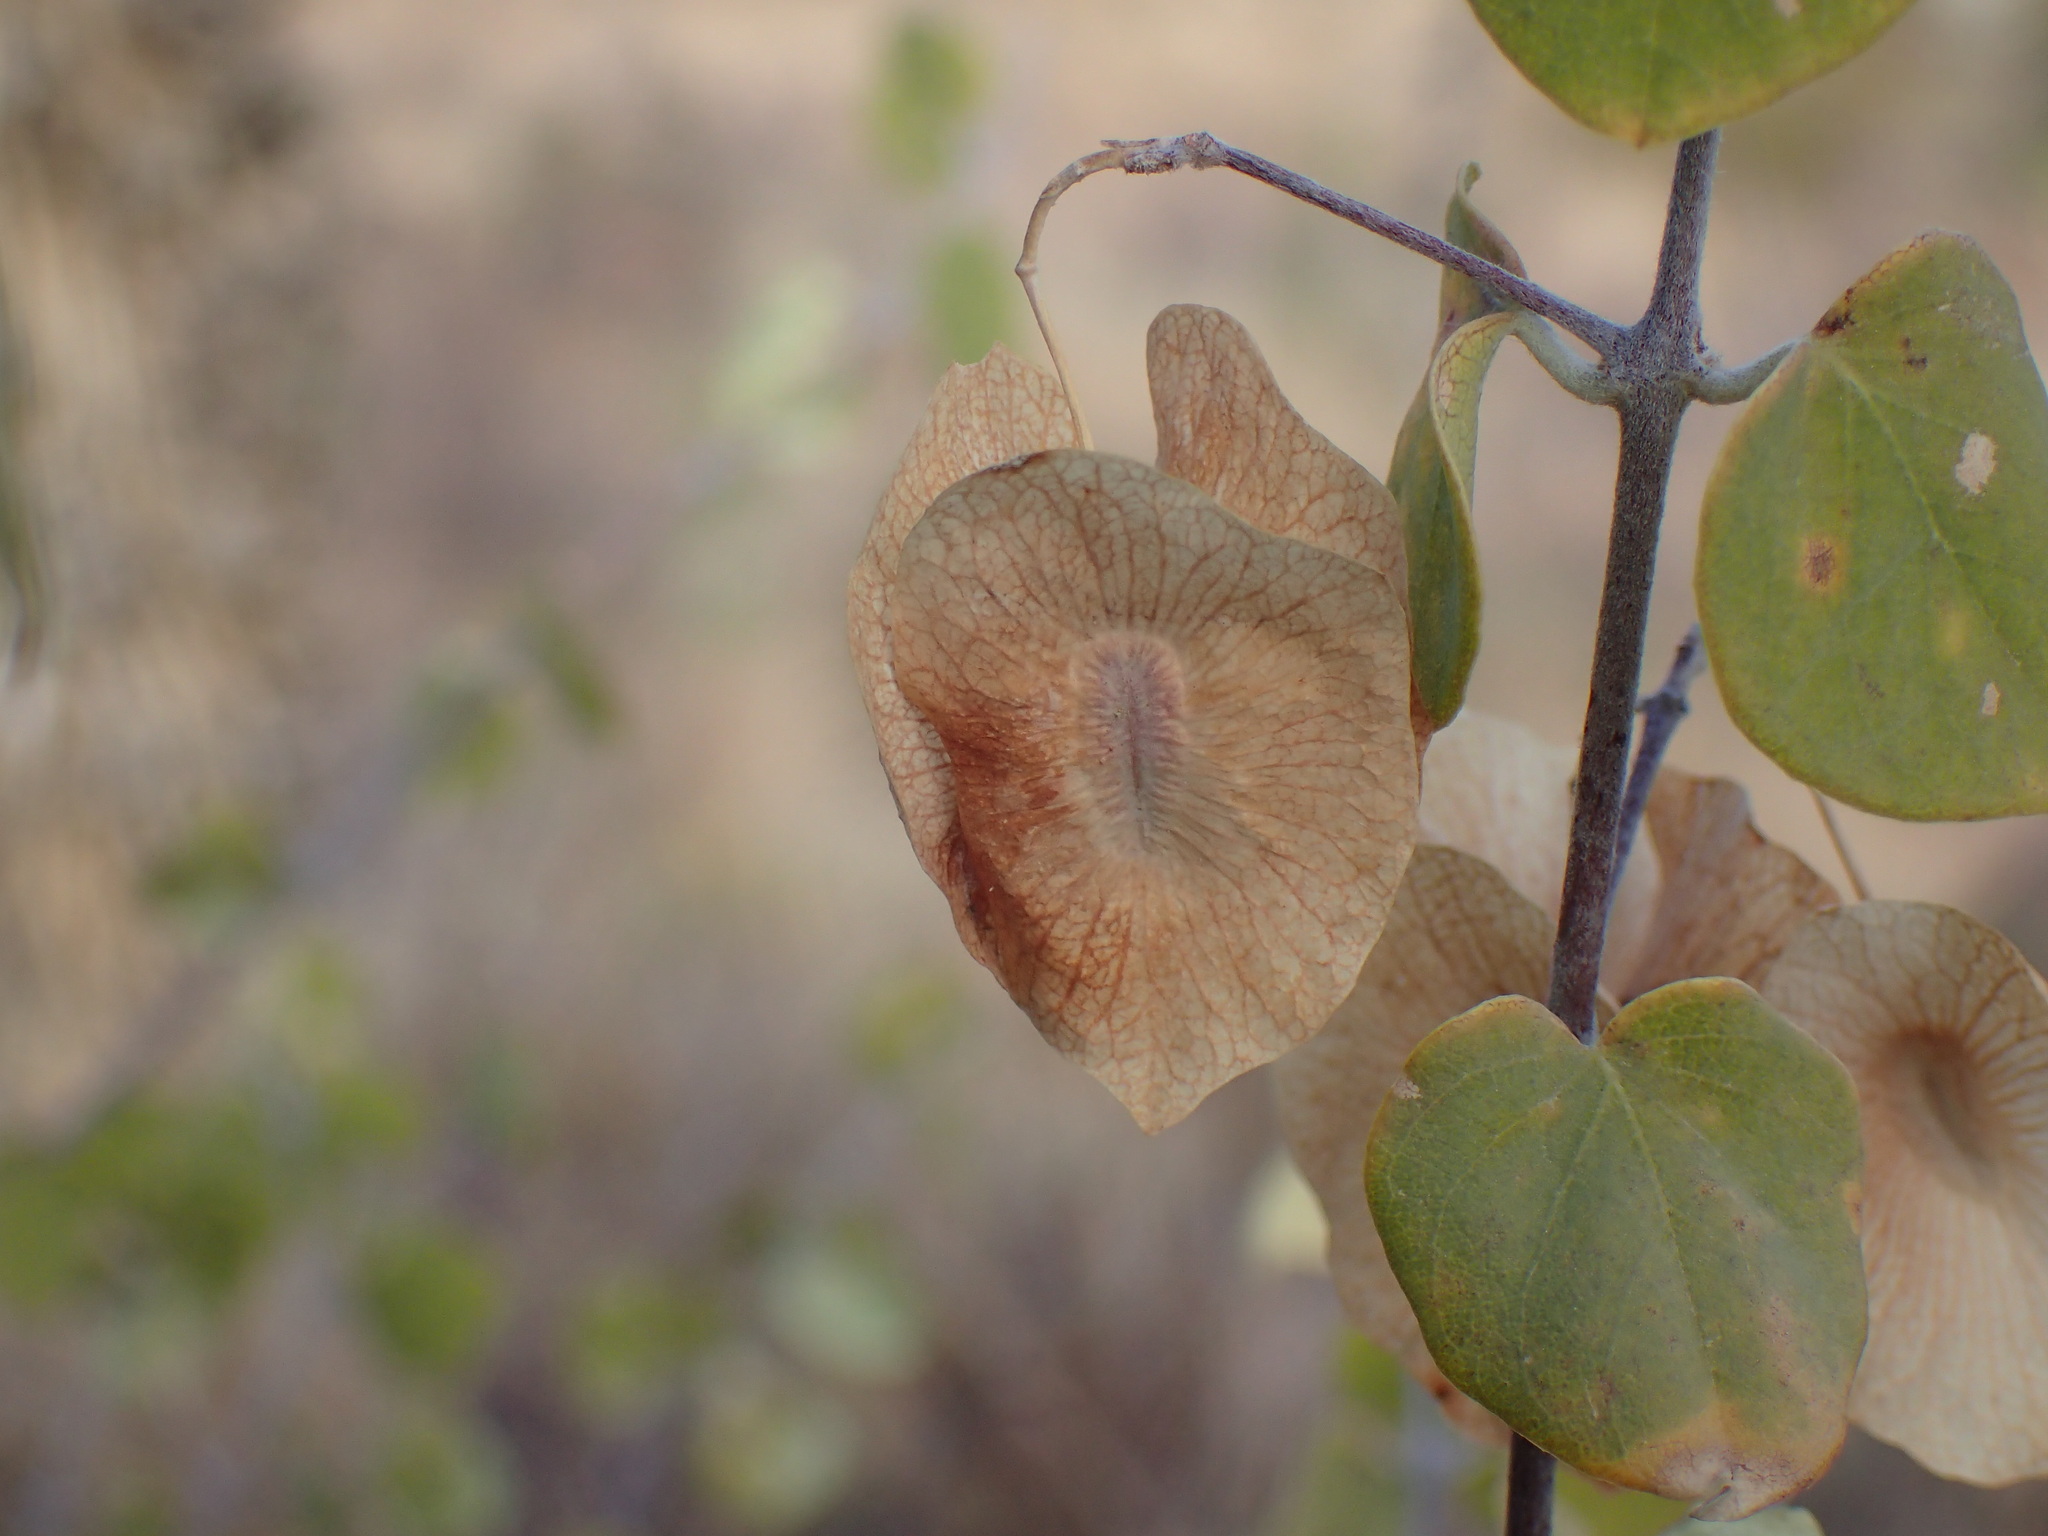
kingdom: Plantae
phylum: Tracheophyta
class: Magnoliopsida
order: Malpighiales
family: Malpighiaceae
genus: Triaspis
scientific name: Triaspis glaucophylla
